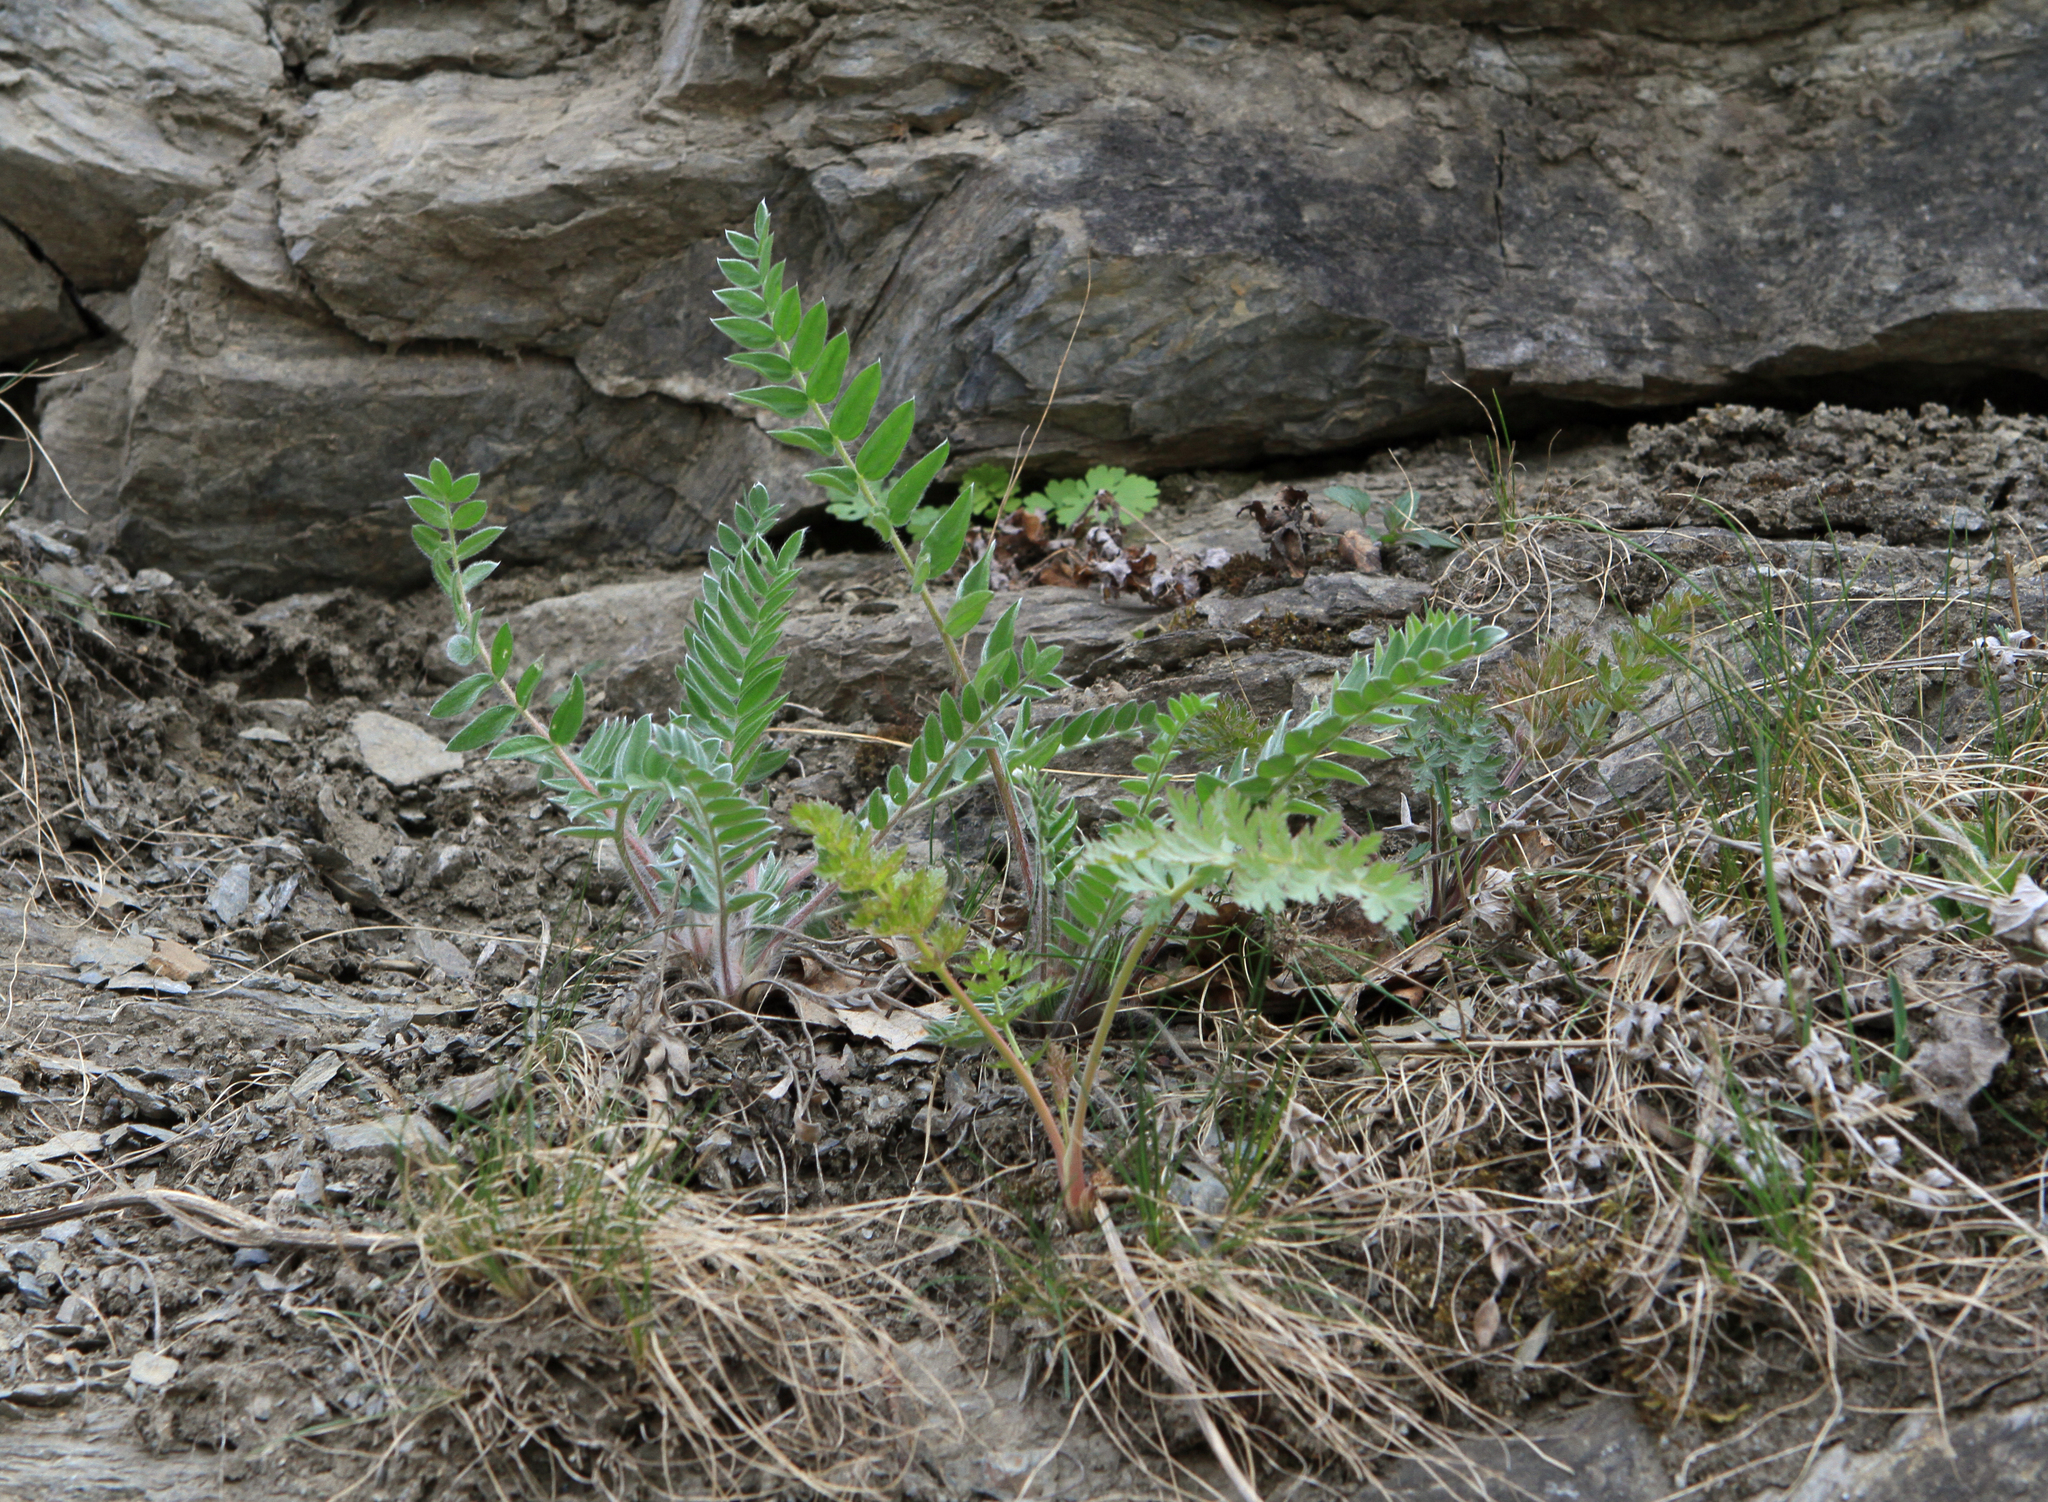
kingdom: Plantae
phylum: Tracheophyta
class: Magnoliopsida
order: Fabales
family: Fabaceae
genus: Oxytropis
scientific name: Oxytropis campanulata
